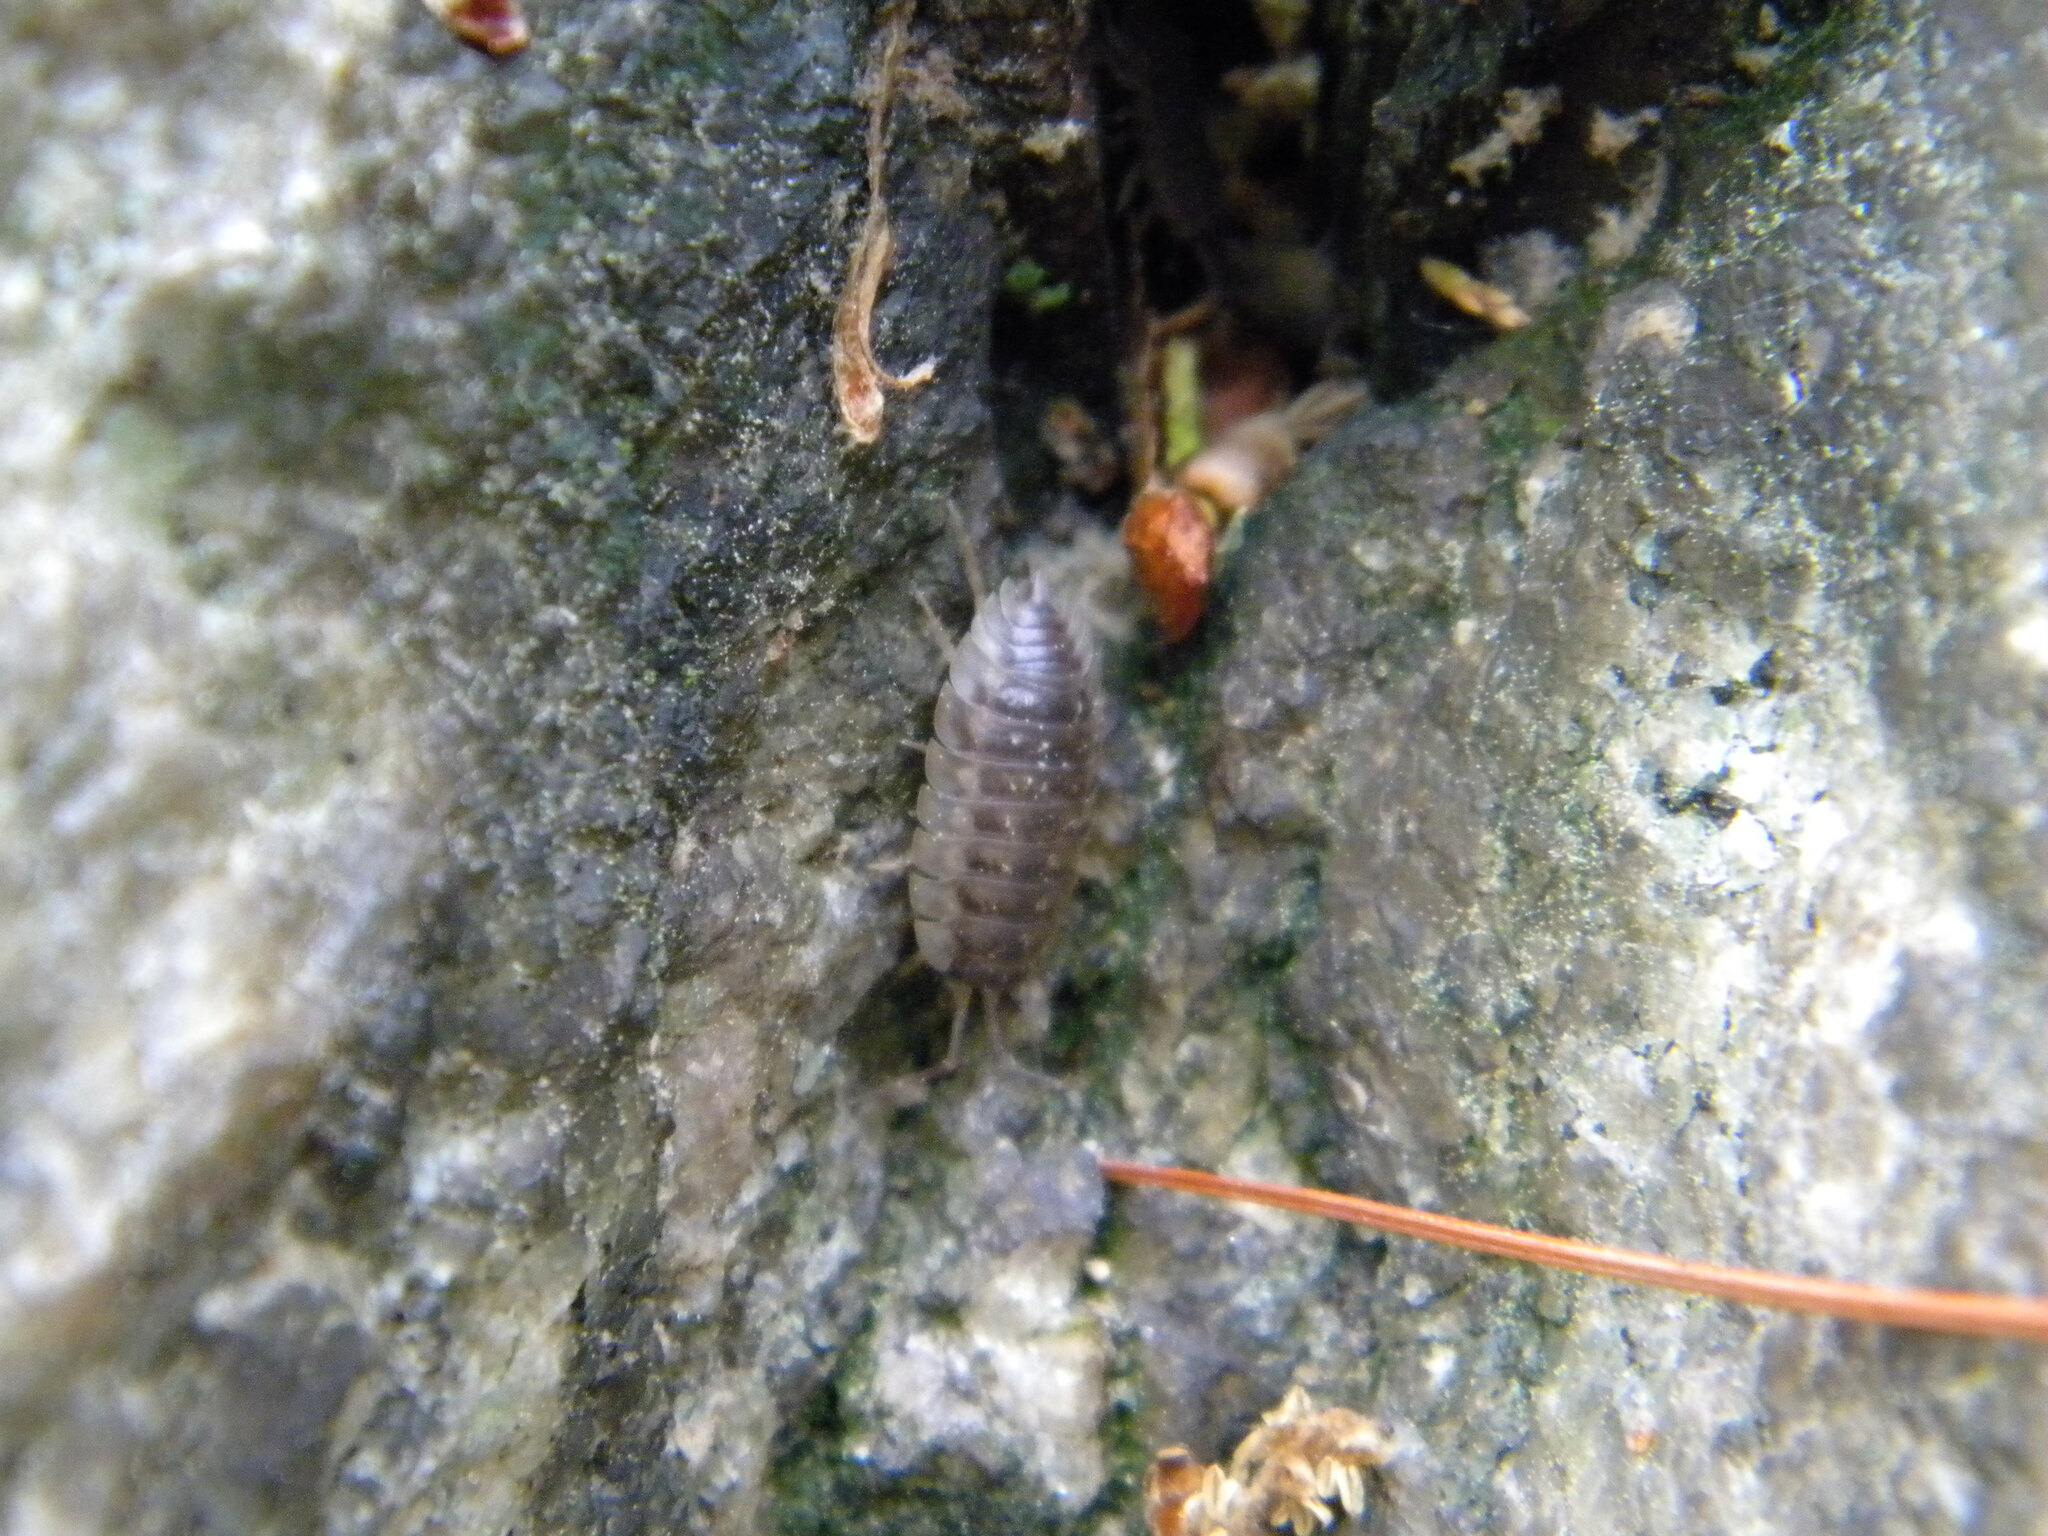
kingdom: Animalia
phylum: Arthropoda
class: Malacostraca
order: Isopoda
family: Oniscidae
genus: Oniscus
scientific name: Oniscus asellus
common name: Common shiny woodlouse
